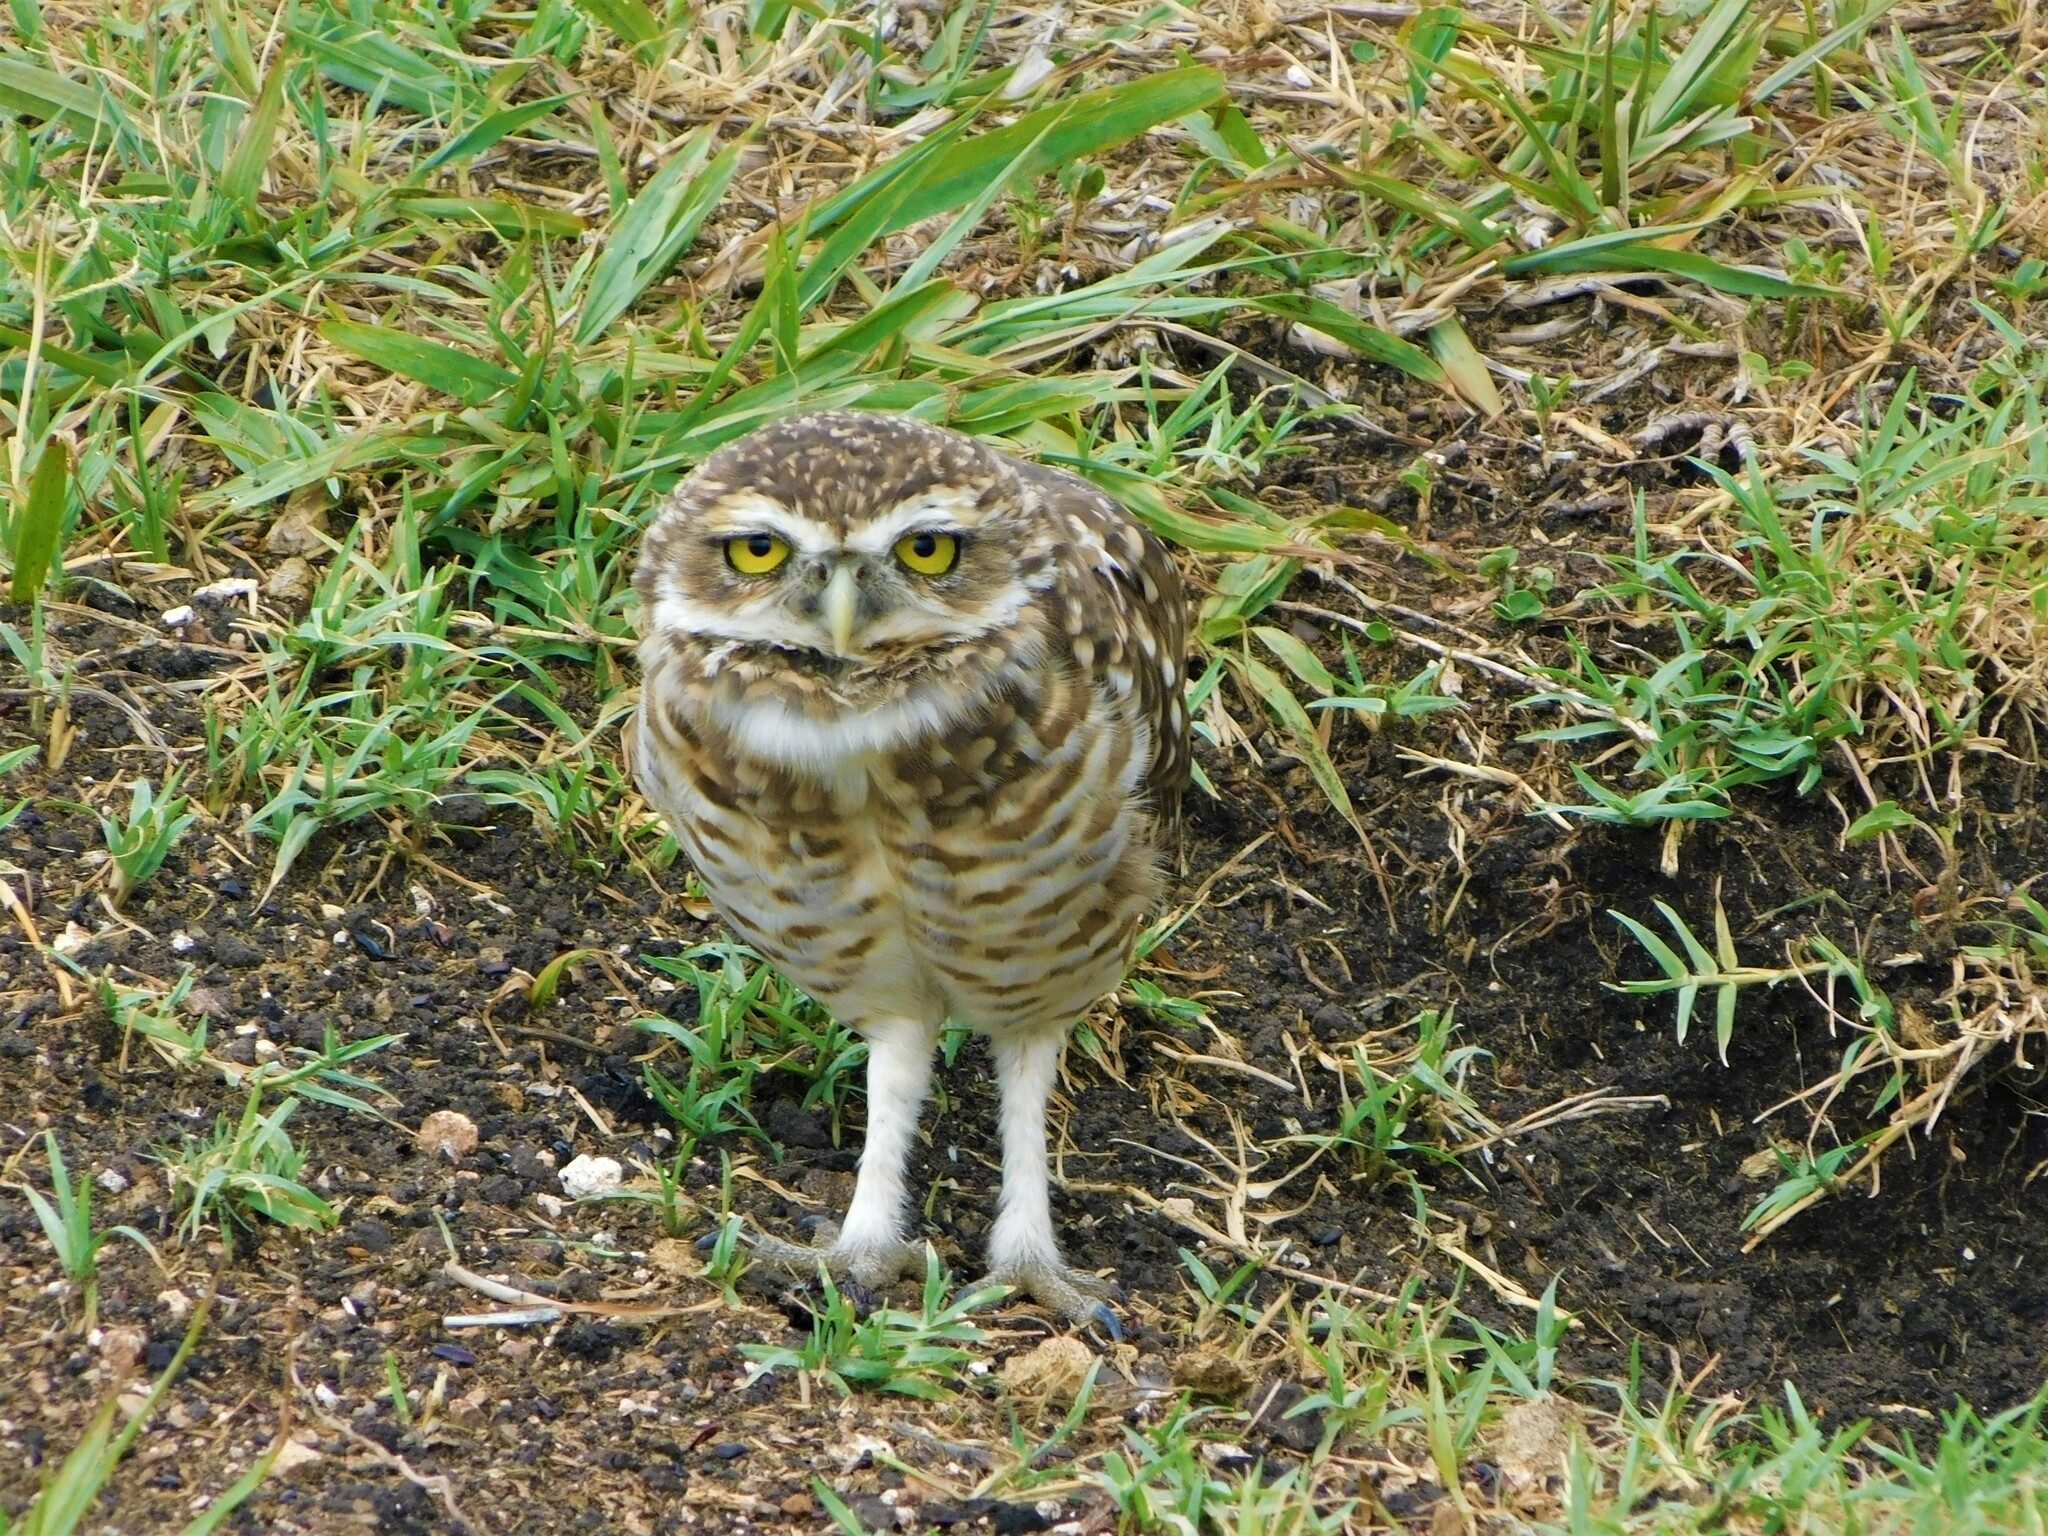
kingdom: Animalia
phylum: Chordata
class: Aves
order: Strigiformes
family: Strigidae
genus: Athene
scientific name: Athene cunicularia
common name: Burrowing owl
